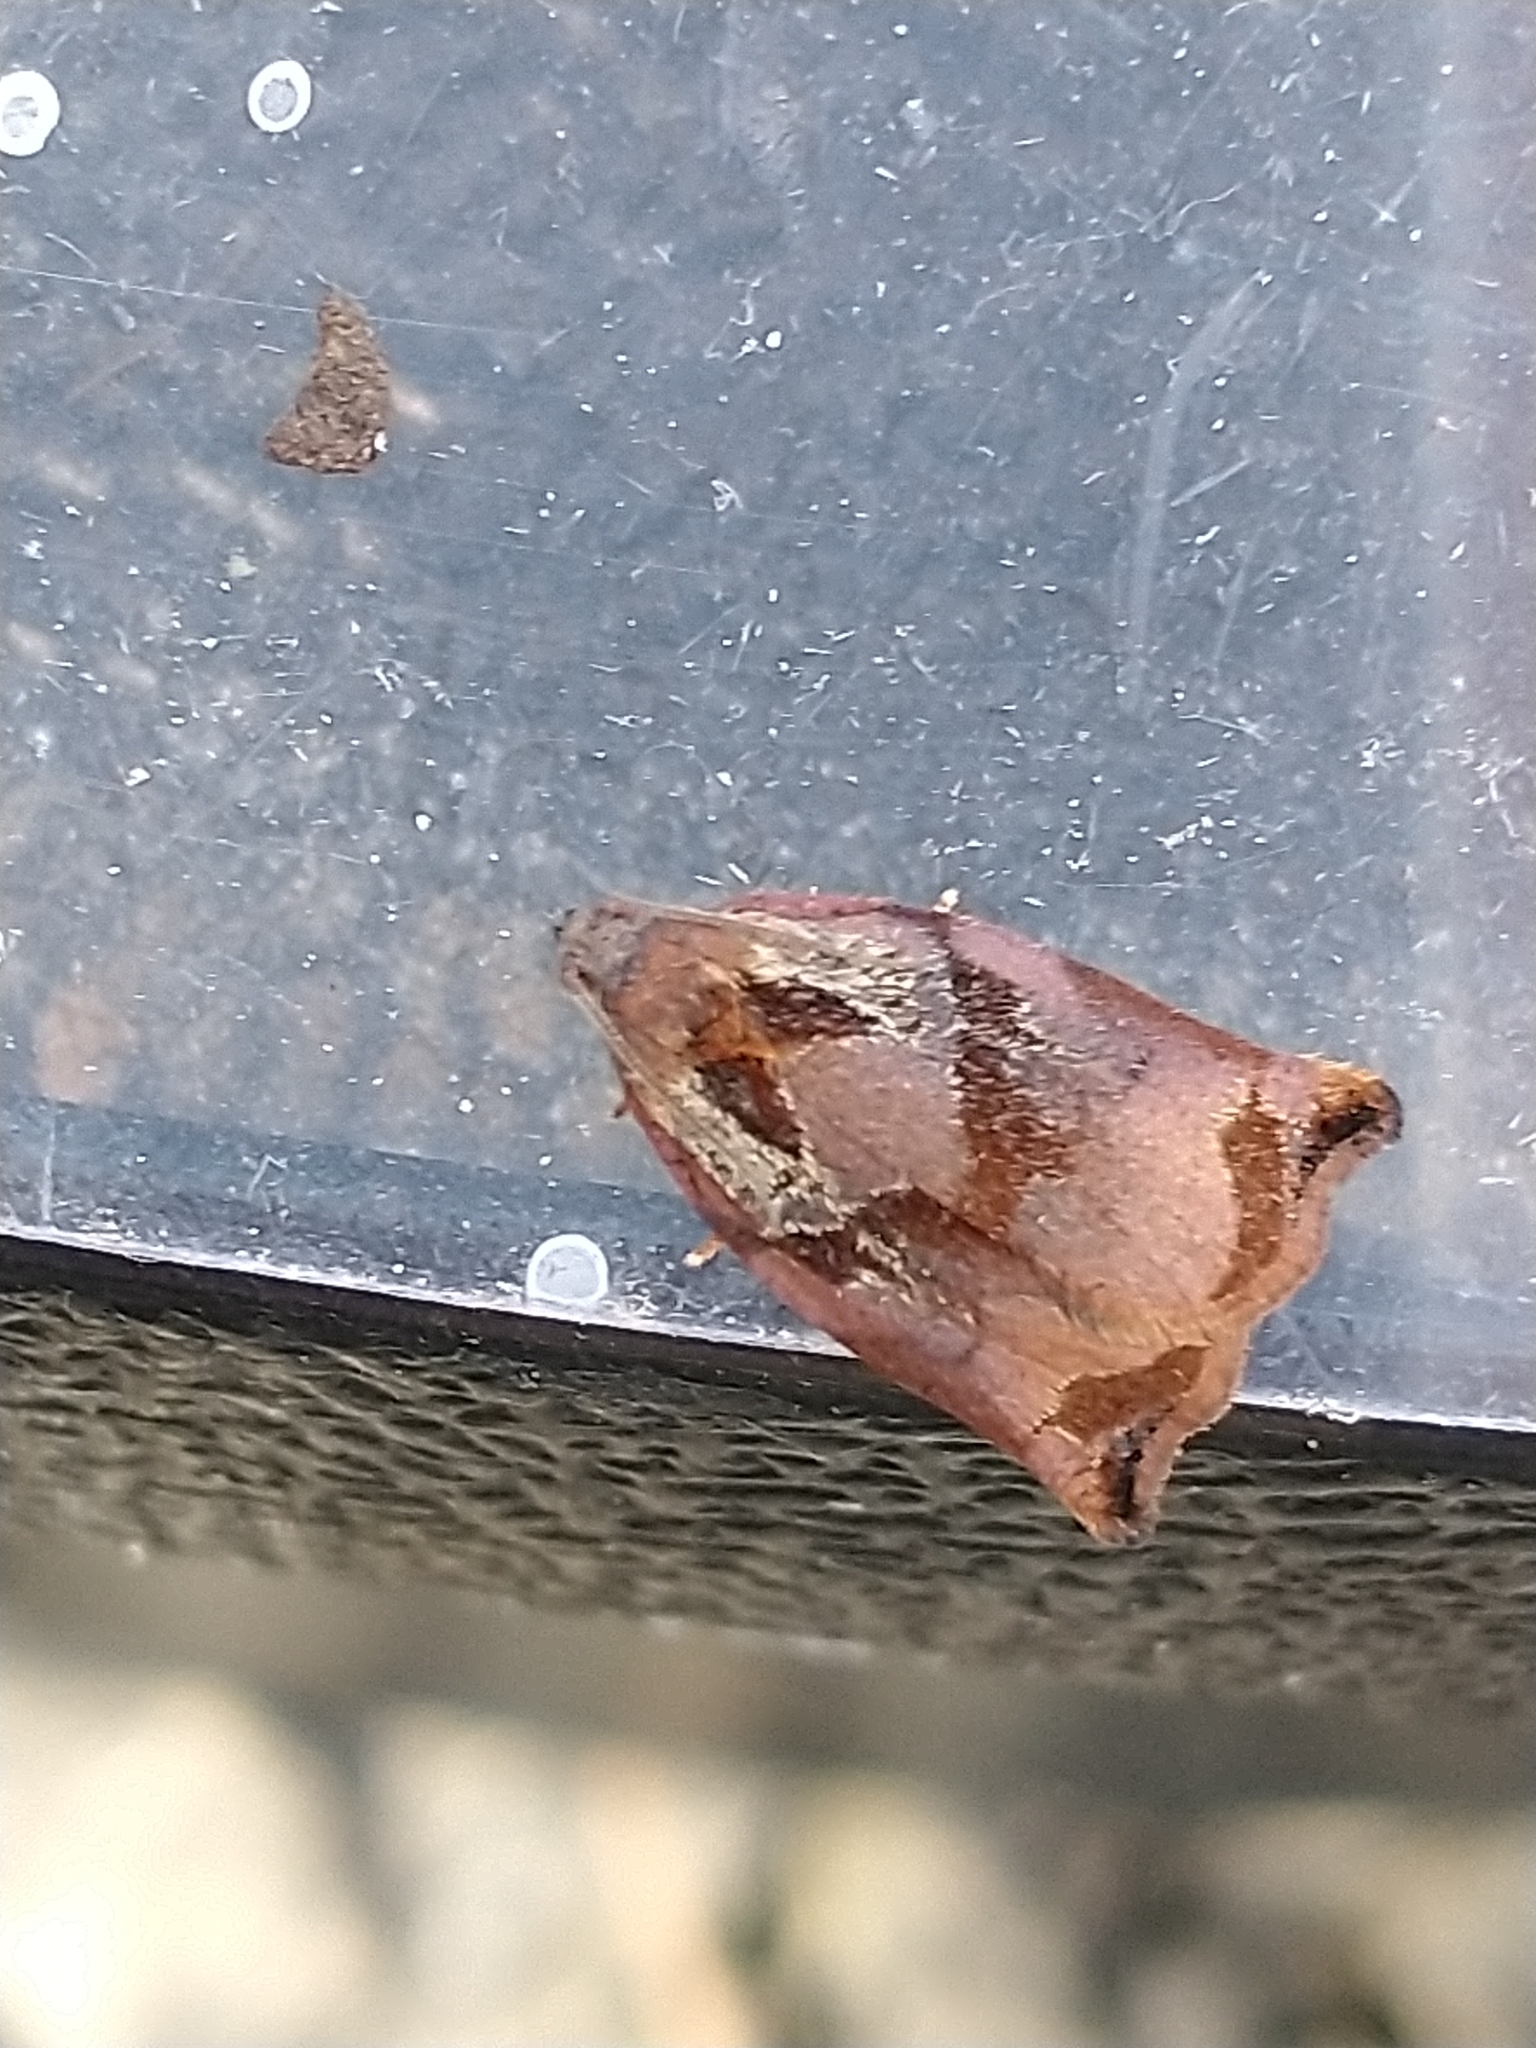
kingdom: Animalia
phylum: Arthropoda
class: Insecta
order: Lepidoptera
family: Tortricidae
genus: Archips
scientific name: Archips podana
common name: Large fruit-tree tortrix
